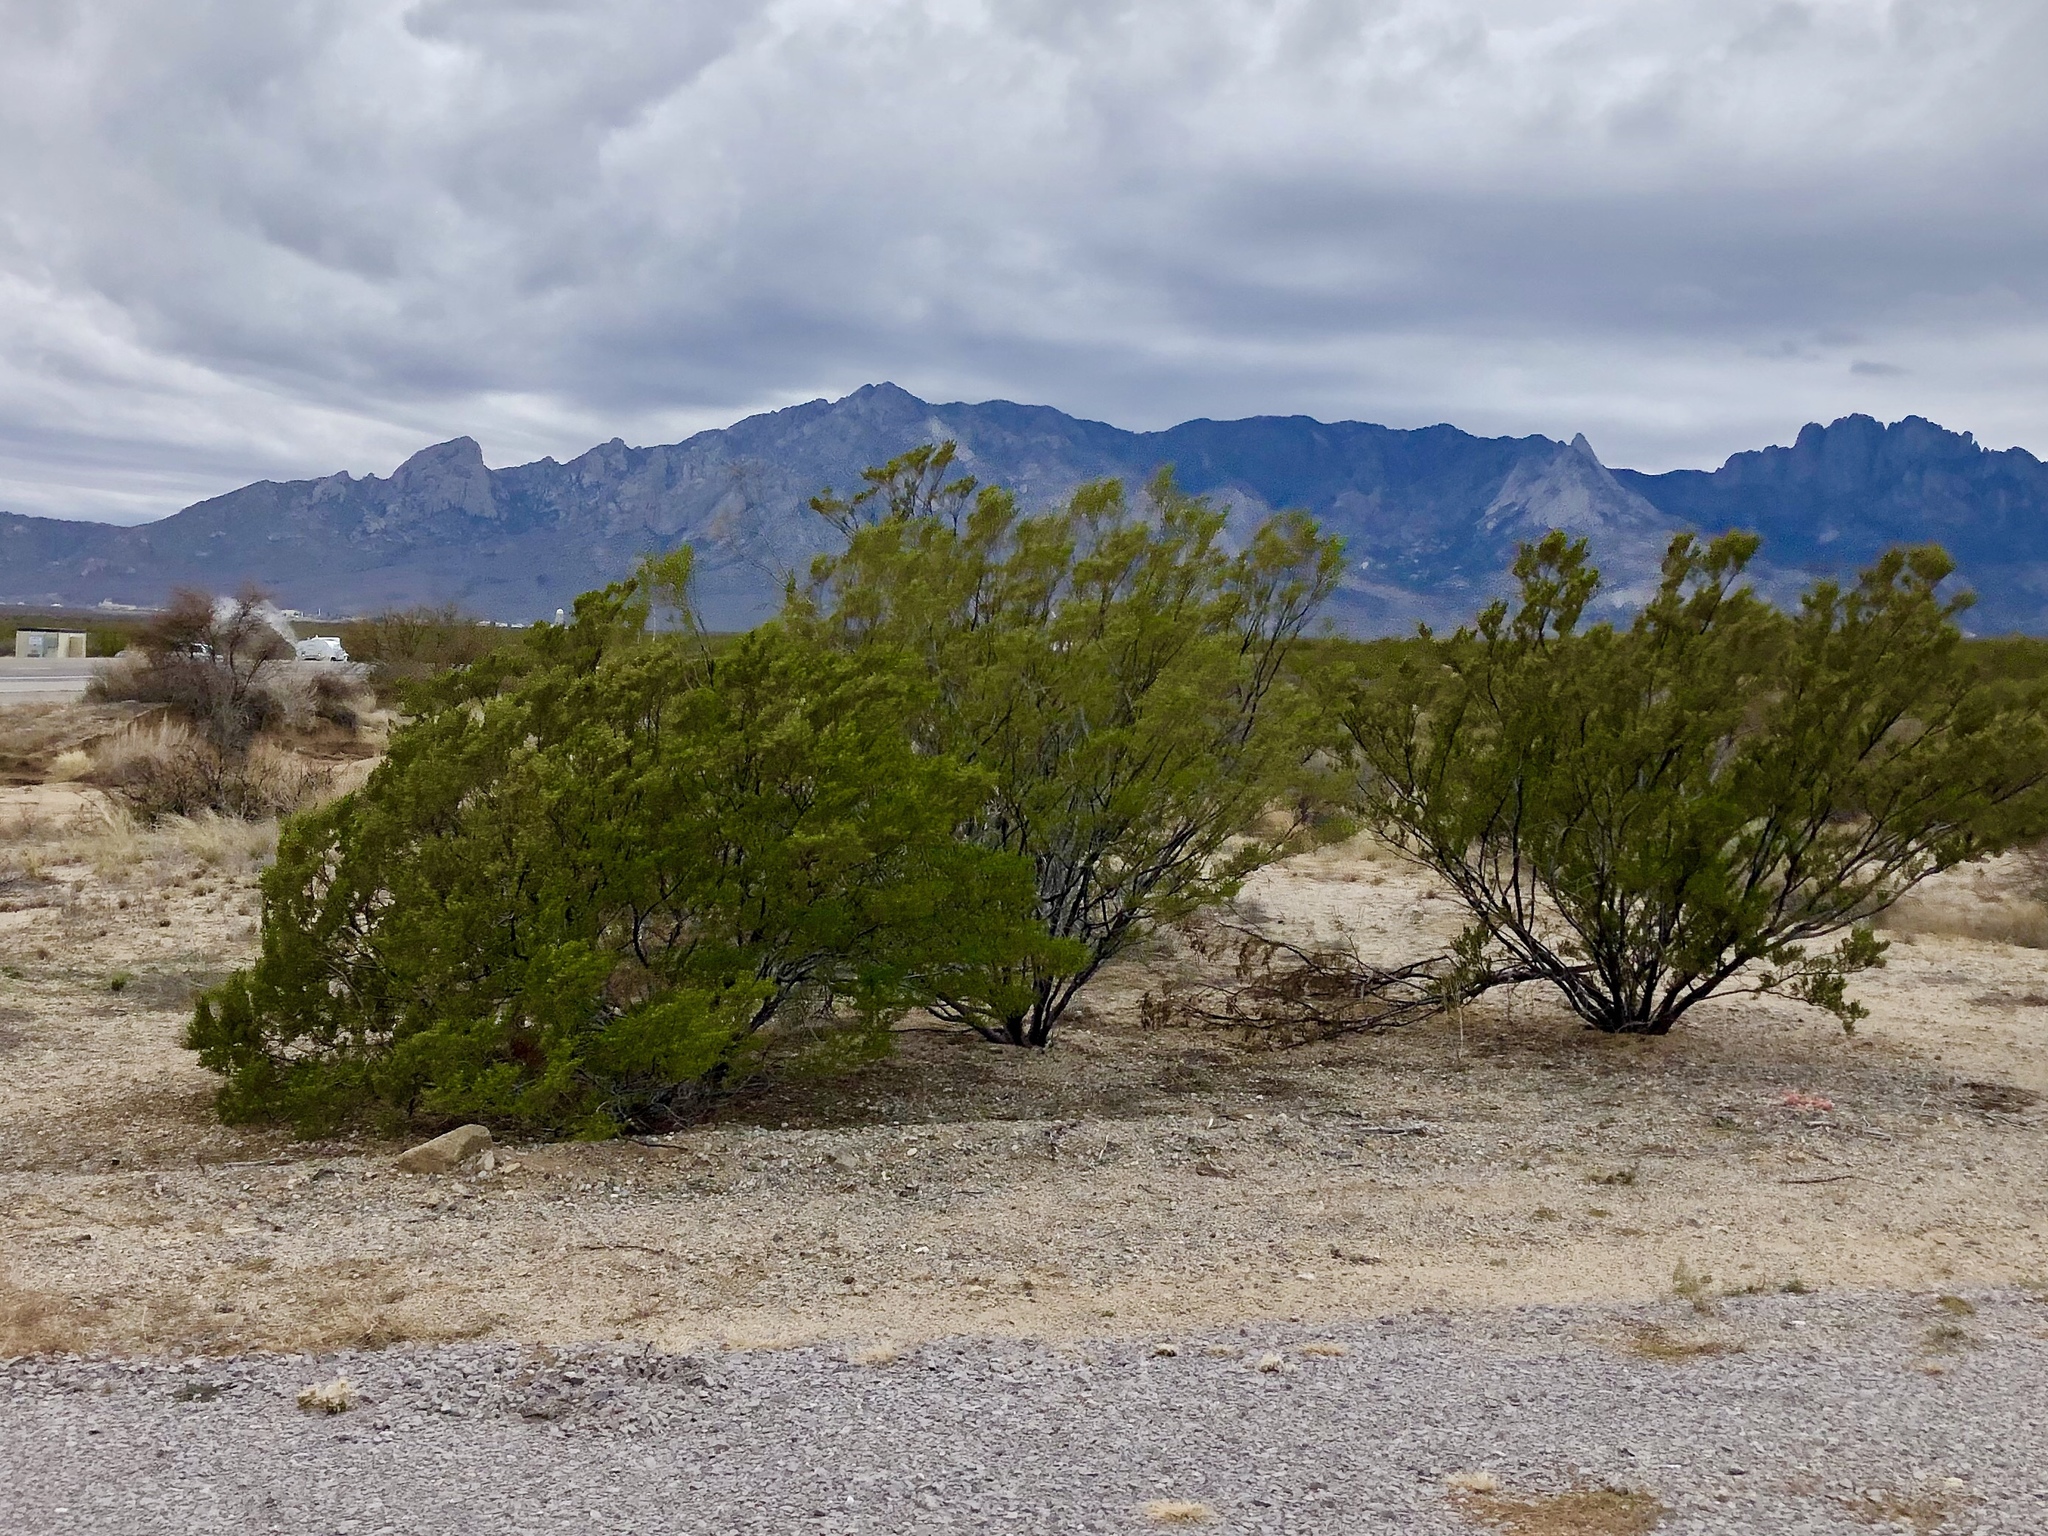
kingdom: Plantae
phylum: Tracheophyta
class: Magnoliopsida
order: Zygophyllales
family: Zygophyllaceae
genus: Larrea
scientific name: Larrea tridentata
